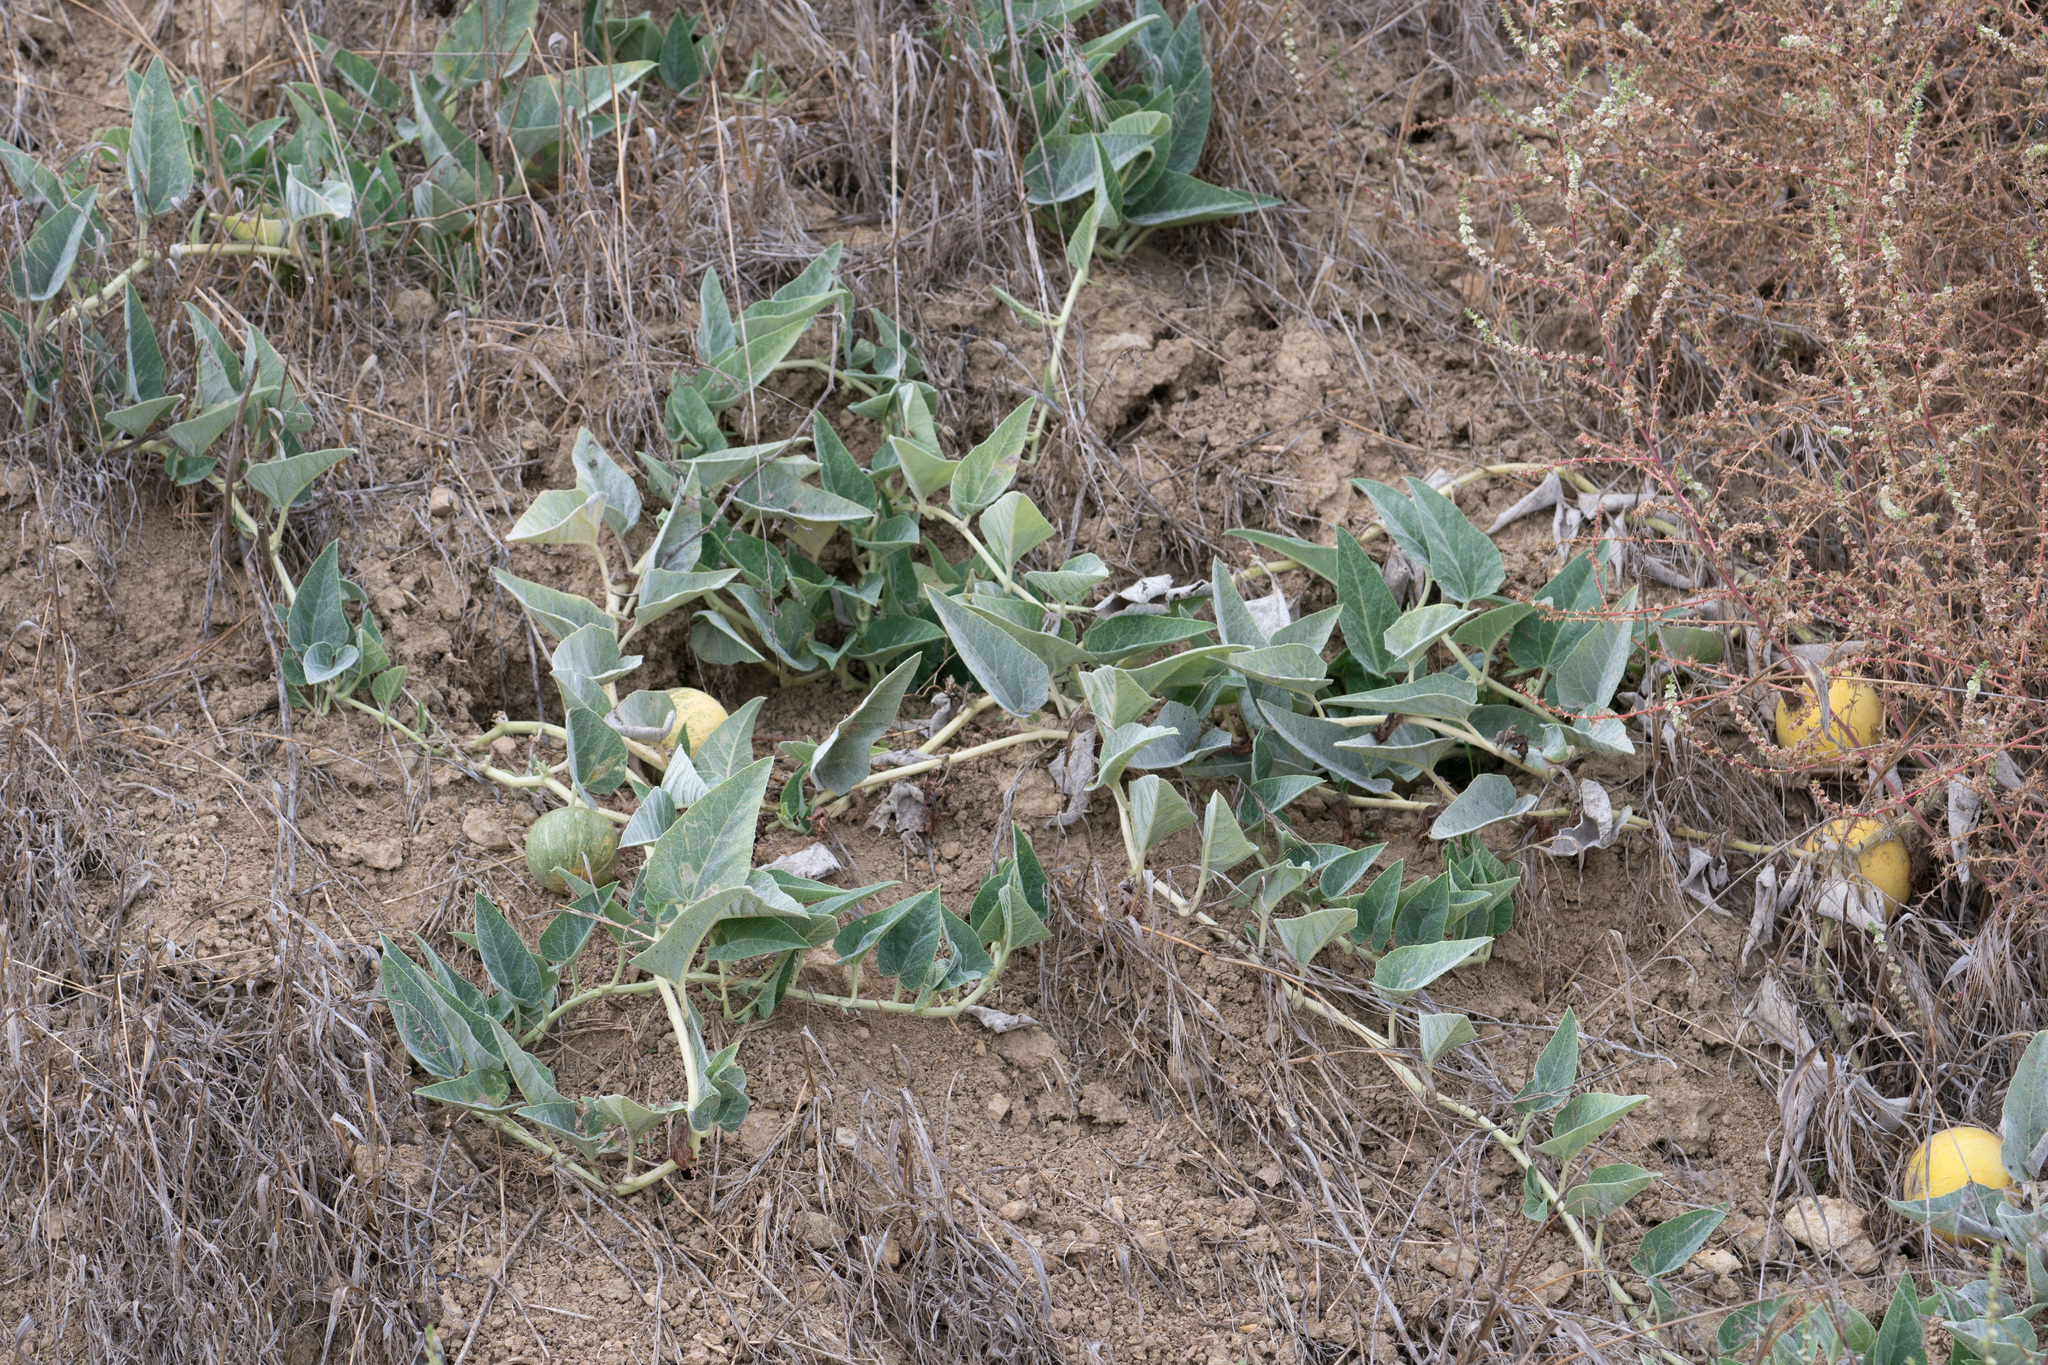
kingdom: Plantae
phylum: Tracheophyta
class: Magnoliopsida
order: Cucurbitales
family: Cucurbitaceae
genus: Cucurbita
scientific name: Cucurbita foetidissima
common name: Buffalo gourd
